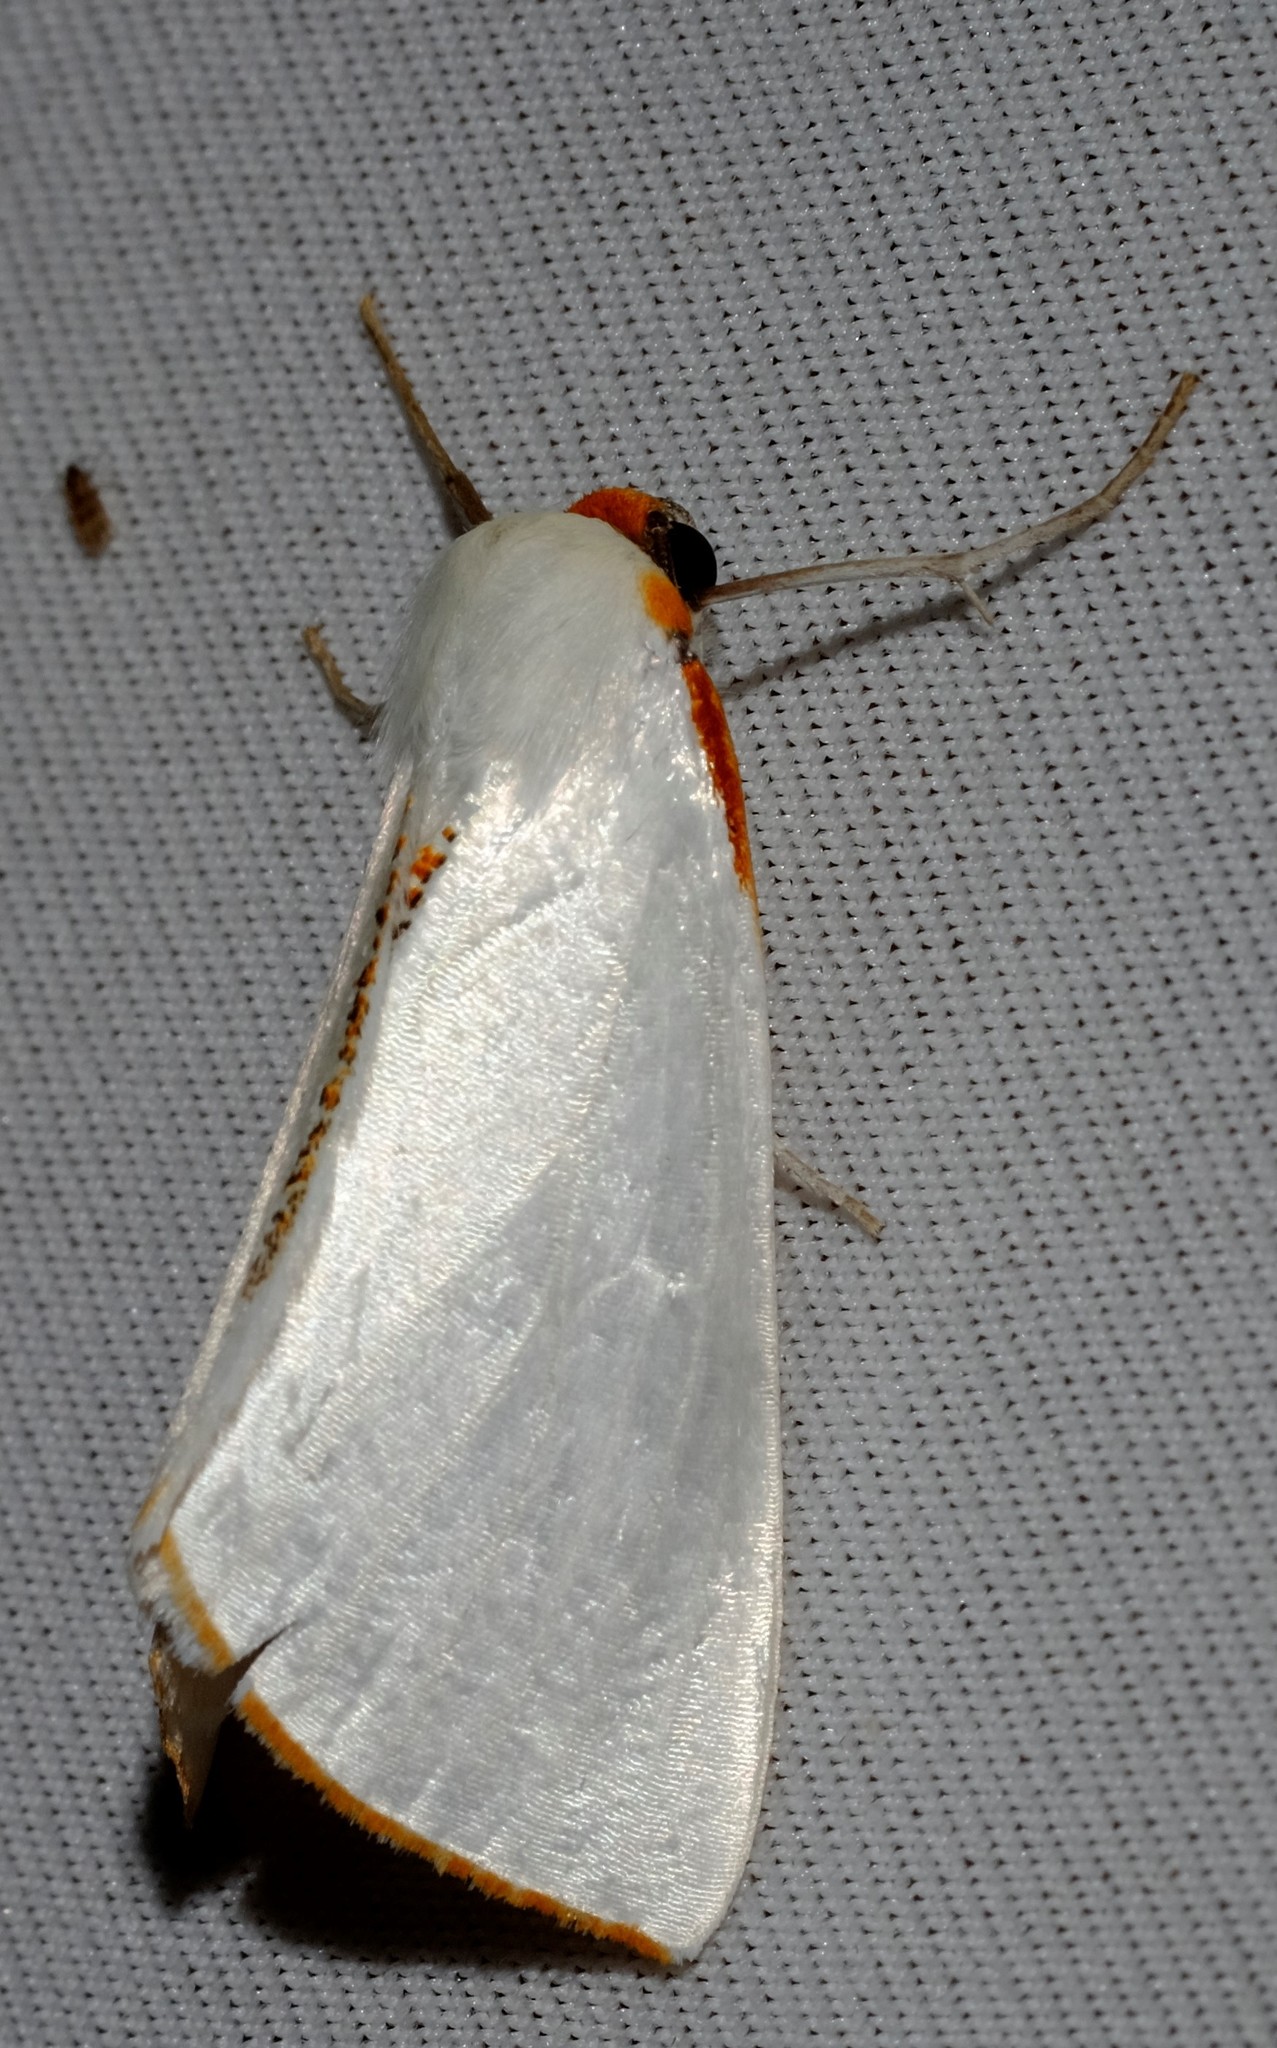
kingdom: Animalia
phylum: Arthropoda
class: Insecta
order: Lepidoptera
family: Geometridae
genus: Thalaina
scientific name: Thalaina selenaea
